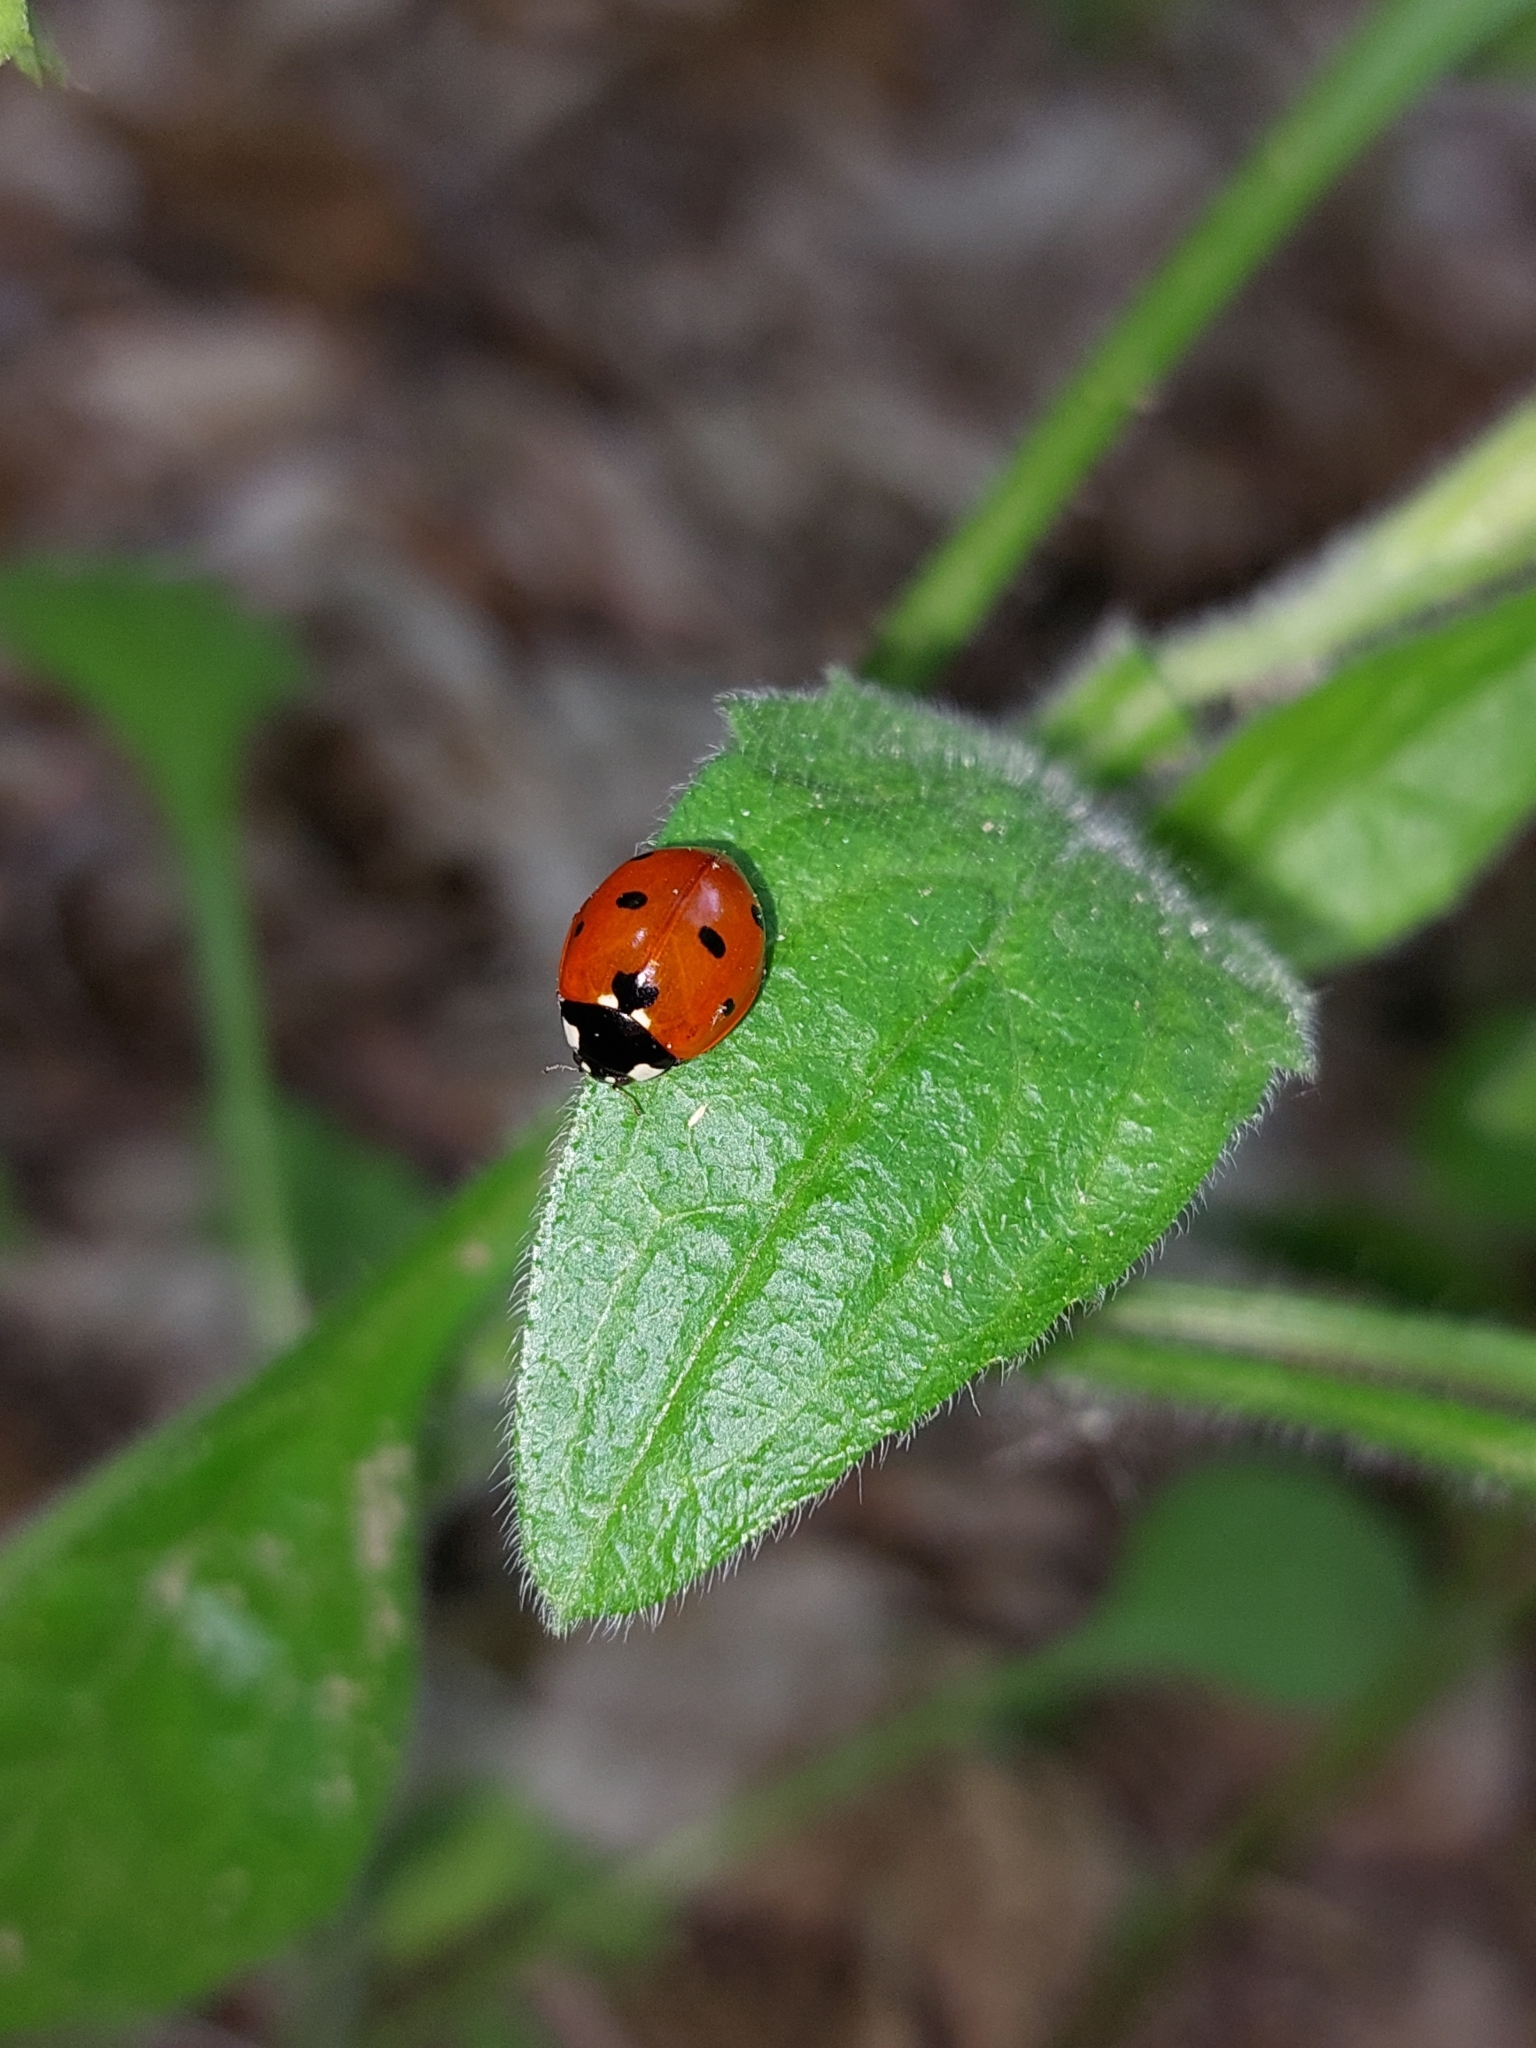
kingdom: Animalia
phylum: Arthropoda
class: Insecta
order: Coleoptera
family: Coccinellidae
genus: Coccinella
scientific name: Coccinella septempunctata
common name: Sevenspotted lady beetle
